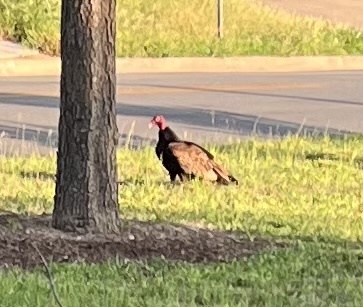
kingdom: Animalia
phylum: Chordata
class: Aves
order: Accipitriformes
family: Cathartidae
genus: Cathartes
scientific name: Cathartes aura
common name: Turkey vulture
